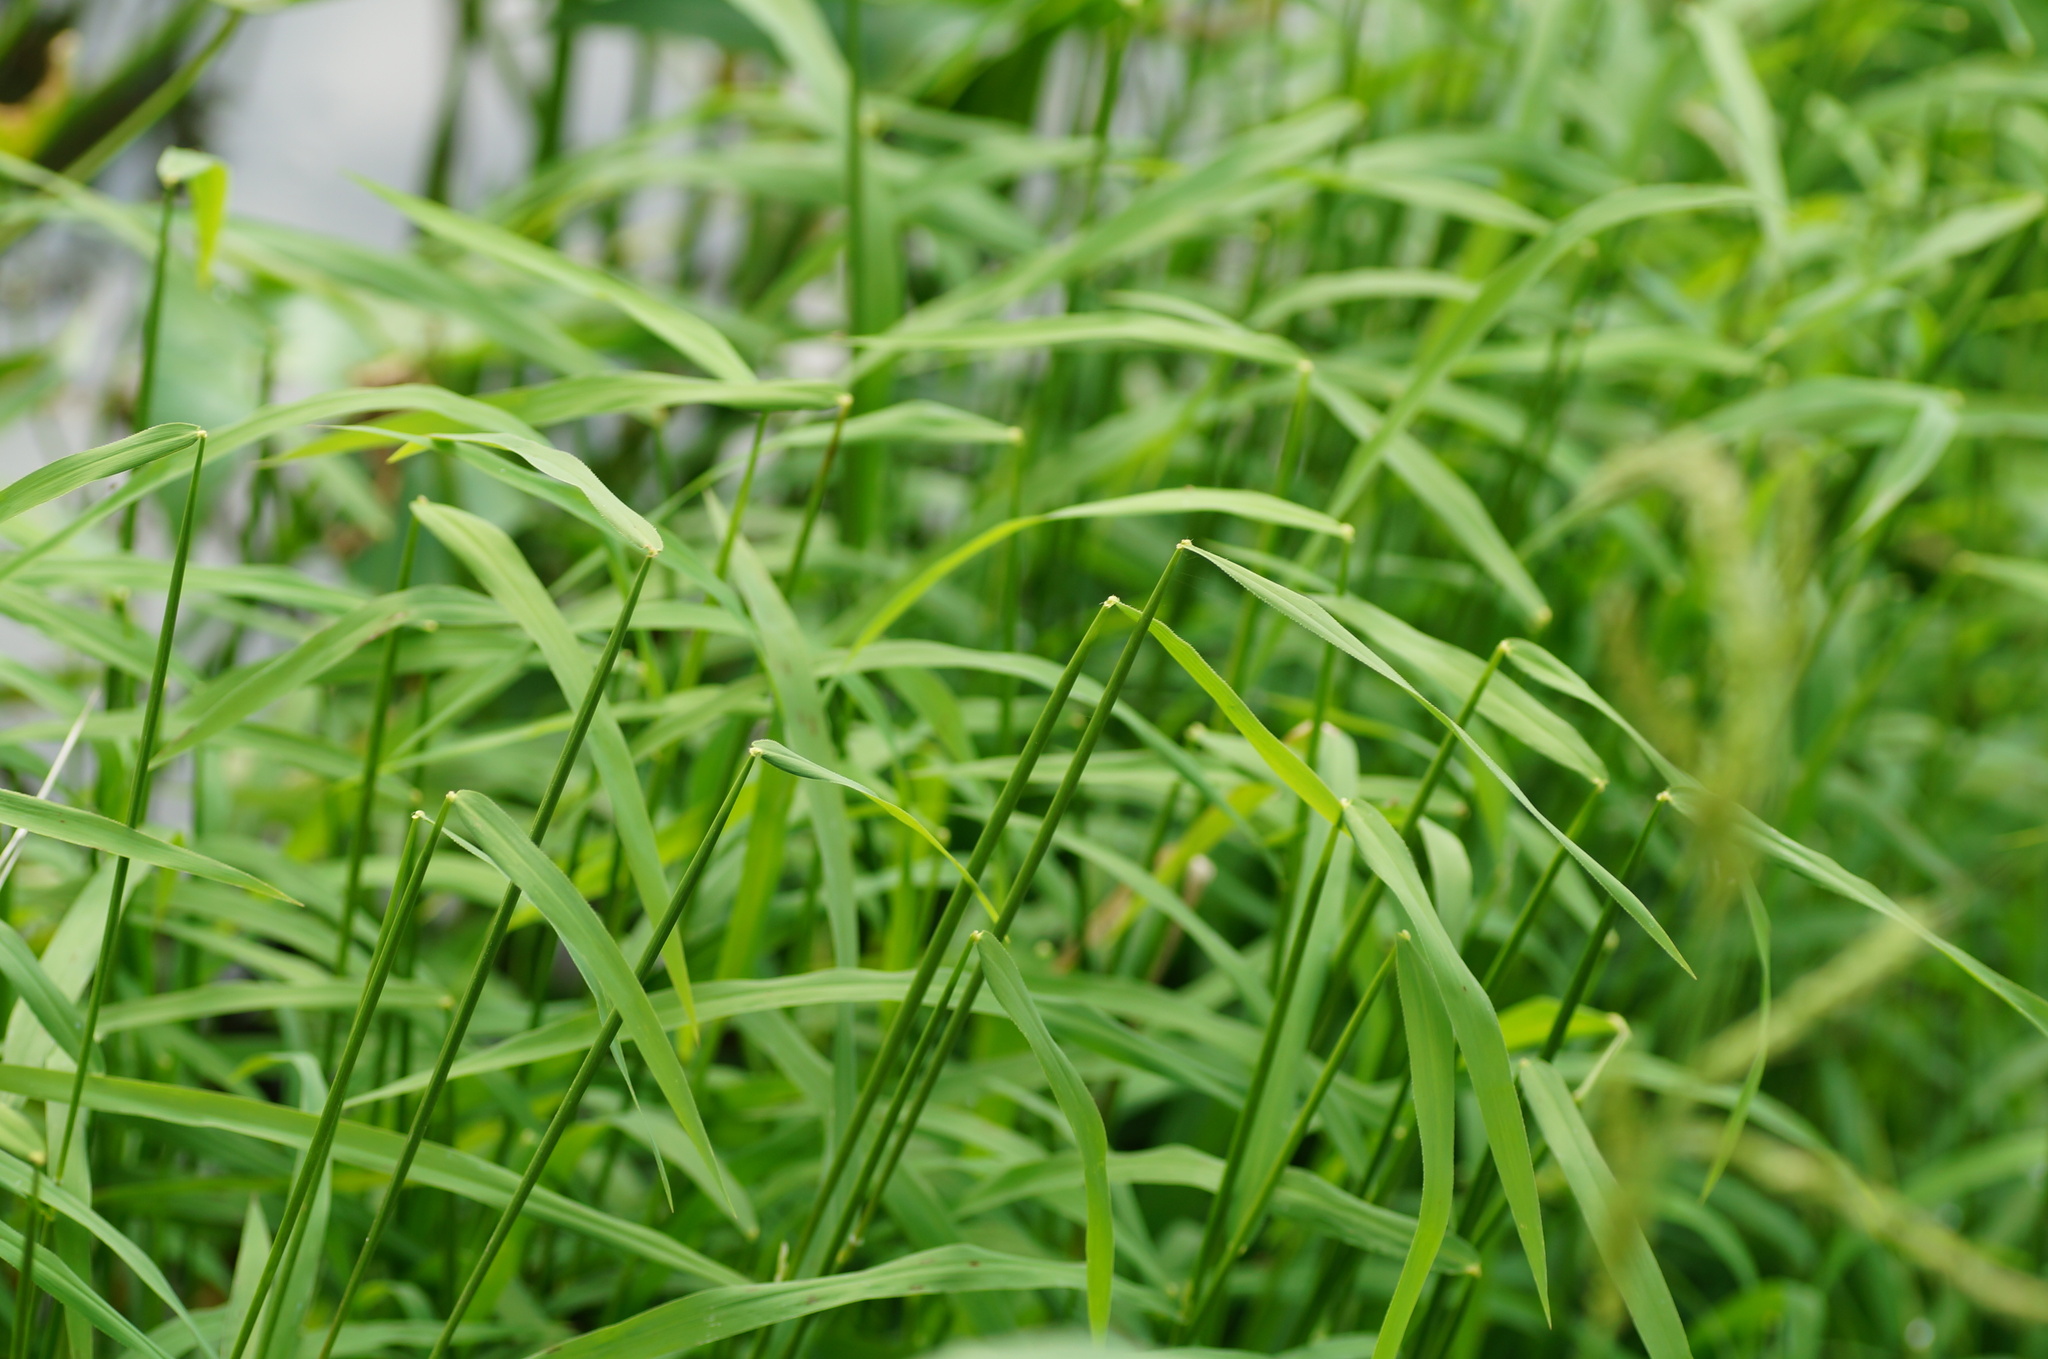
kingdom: Plantae
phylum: Tracheophyta
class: Liliopsida
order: Poales
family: Poaceae
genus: Leersia
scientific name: Leersia oryzoides
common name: Cut-grass
